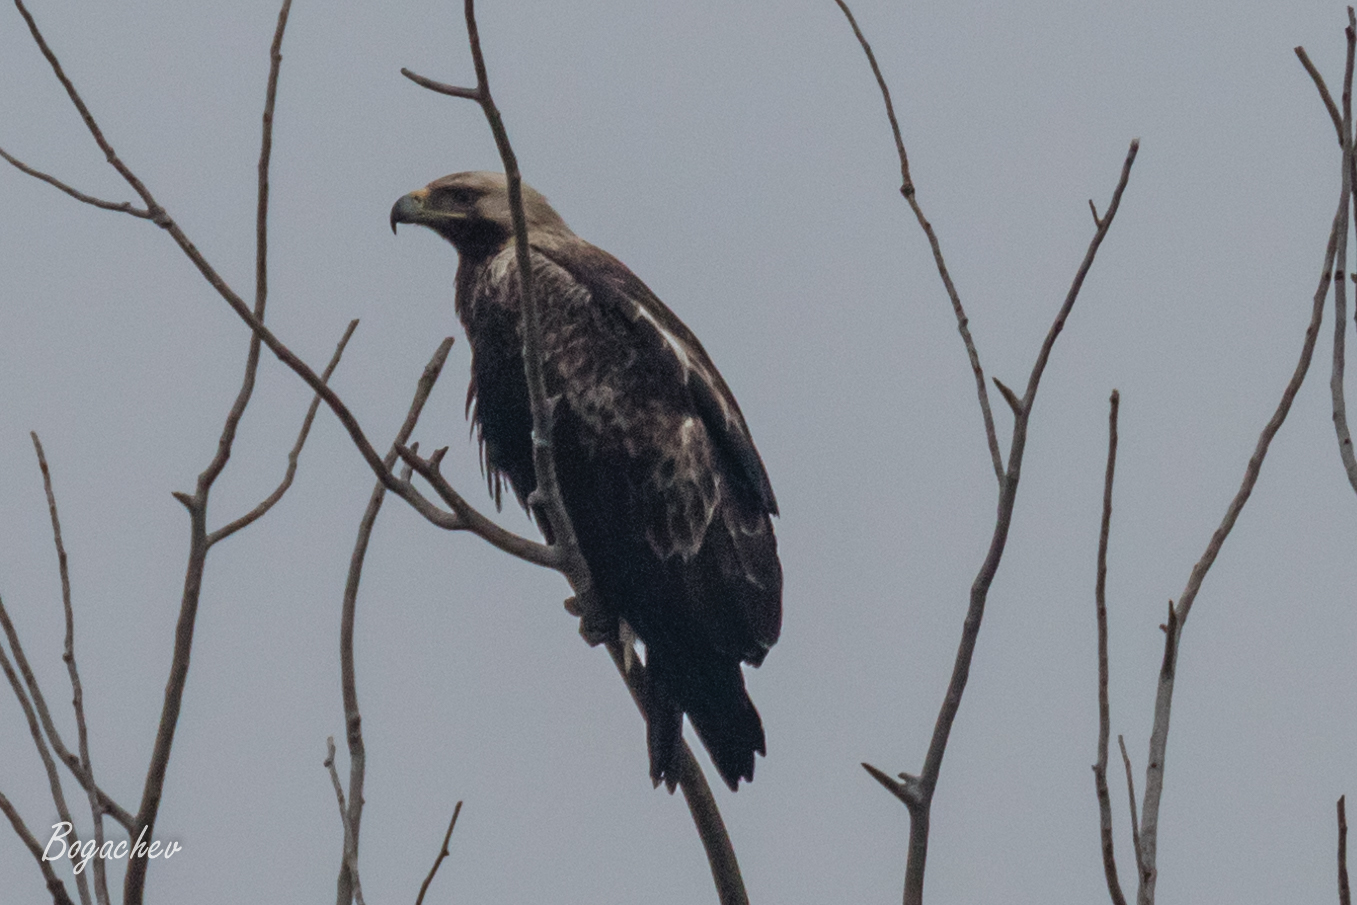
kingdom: Animalia
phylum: Chordata
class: Aves
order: Accipitriformes
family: Accipitridae
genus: Aquila
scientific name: Aquila heliaca
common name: Eastern imperial eagle
